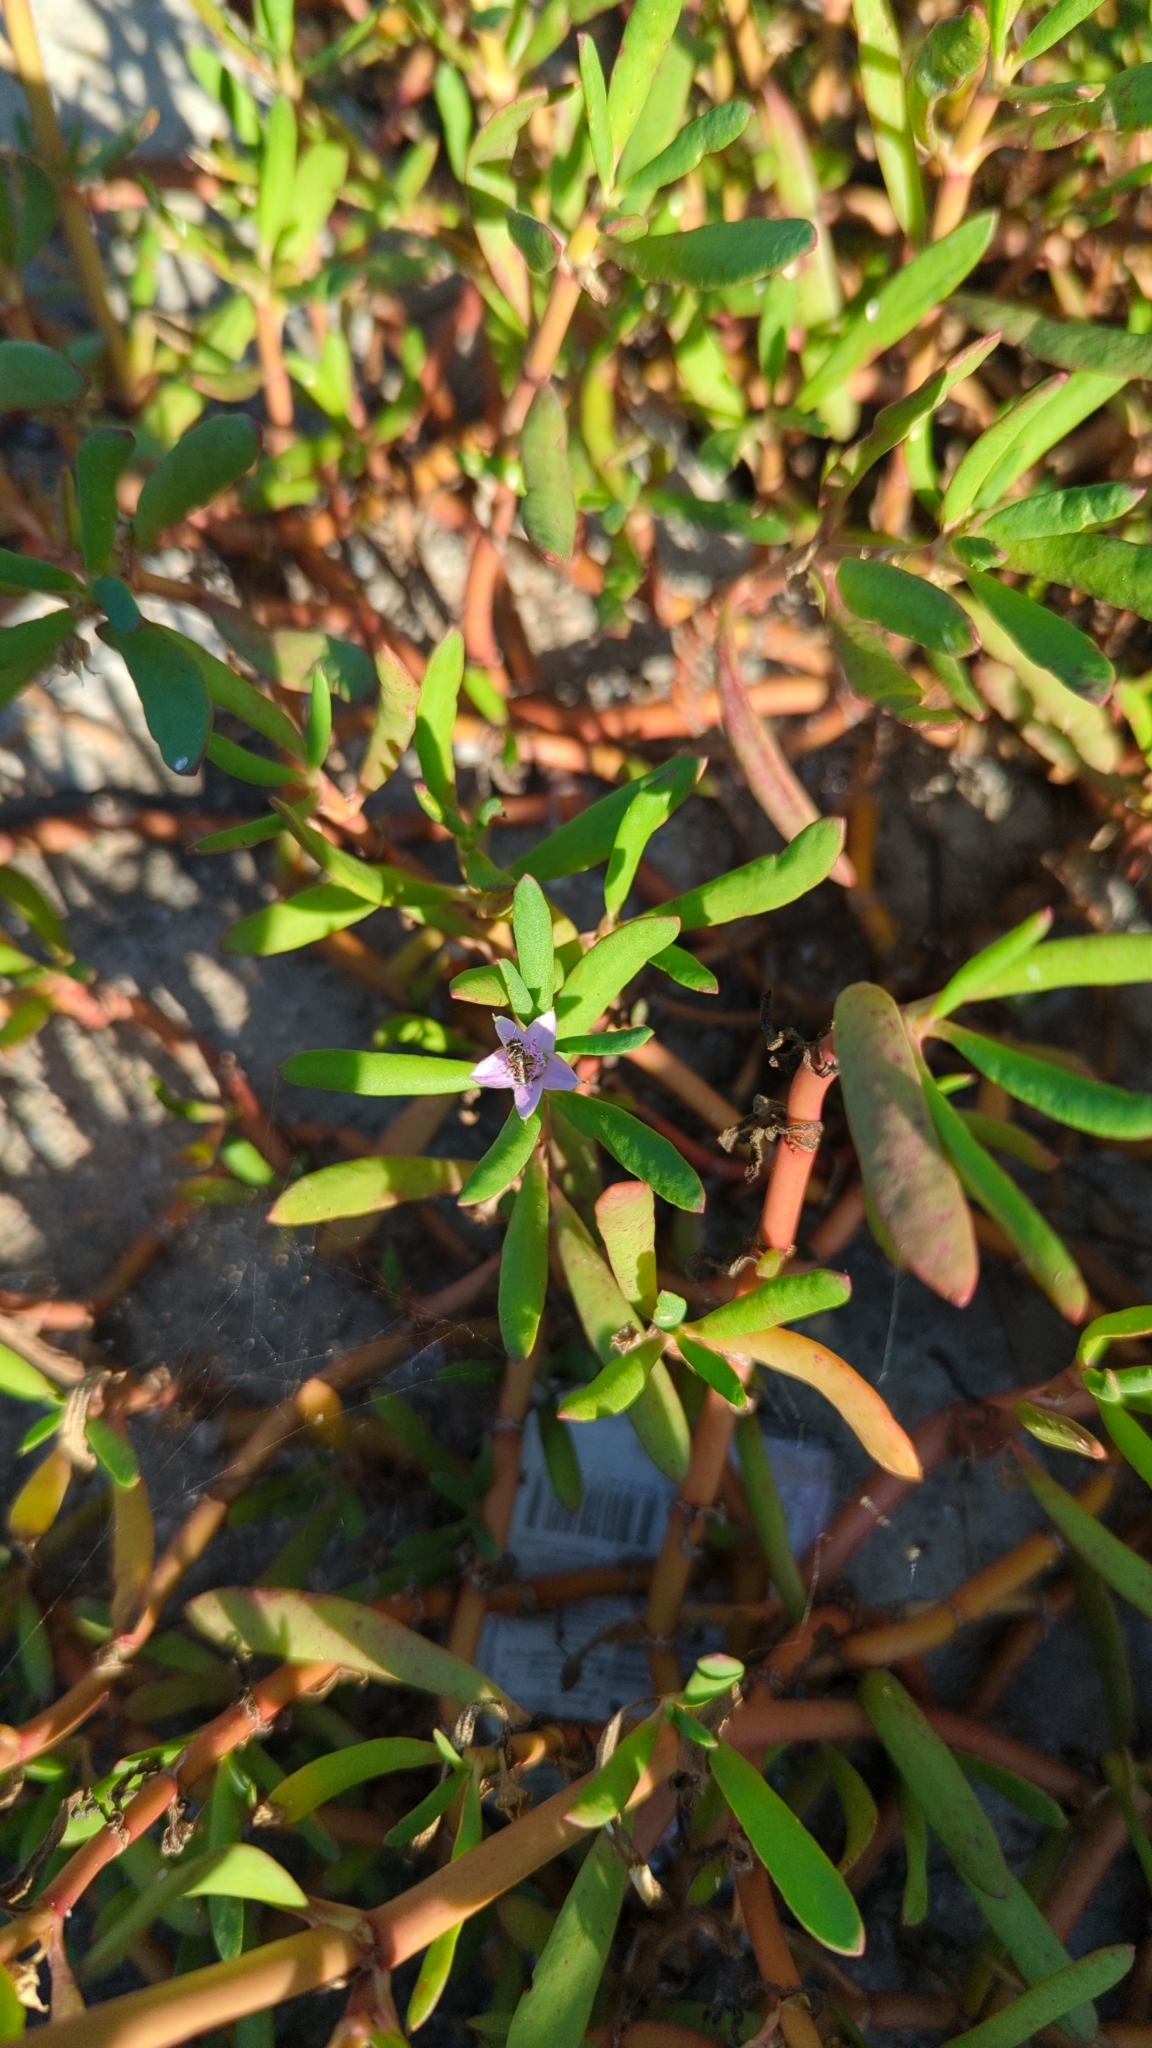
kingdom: Plantae
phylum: Tracheophyta
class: Magnoliopsida
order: Caryophyllales
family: Aizoaceae
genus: Sesuvium
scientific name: Sesuvium portulacastrum
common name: Sea-purslane
